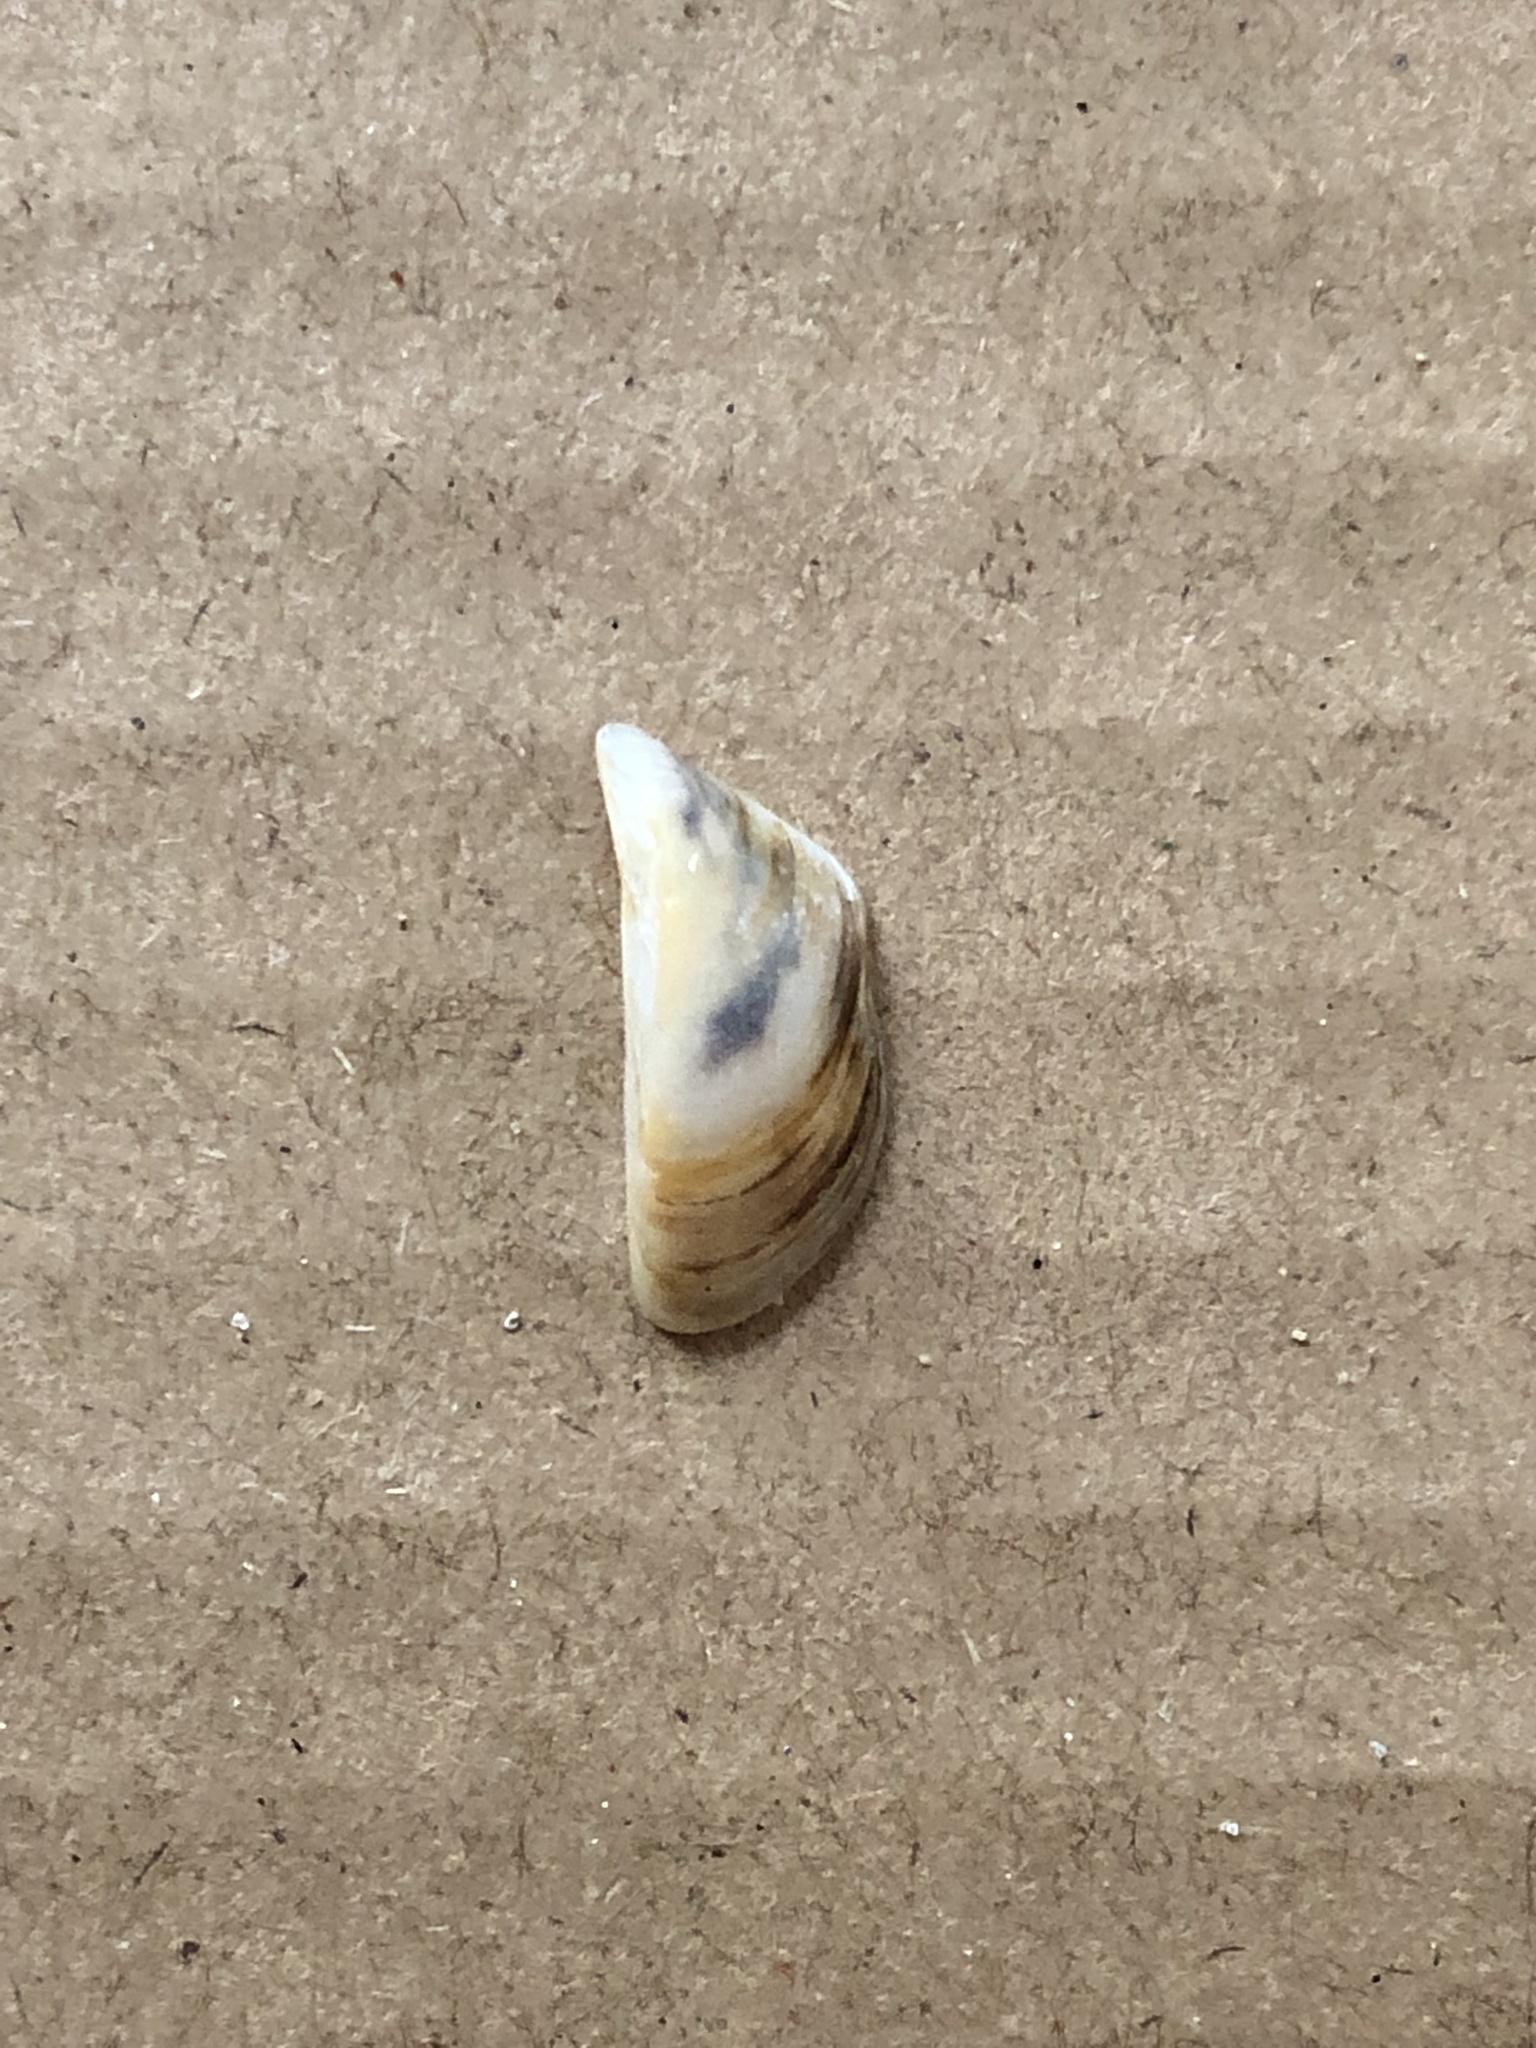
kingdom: Animalia
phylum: Mollusca
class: Bivalvia
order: Myida
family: Dreissenidae
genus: Dreissena
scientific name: Dreissena polymorpha
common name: Zebra mussel
